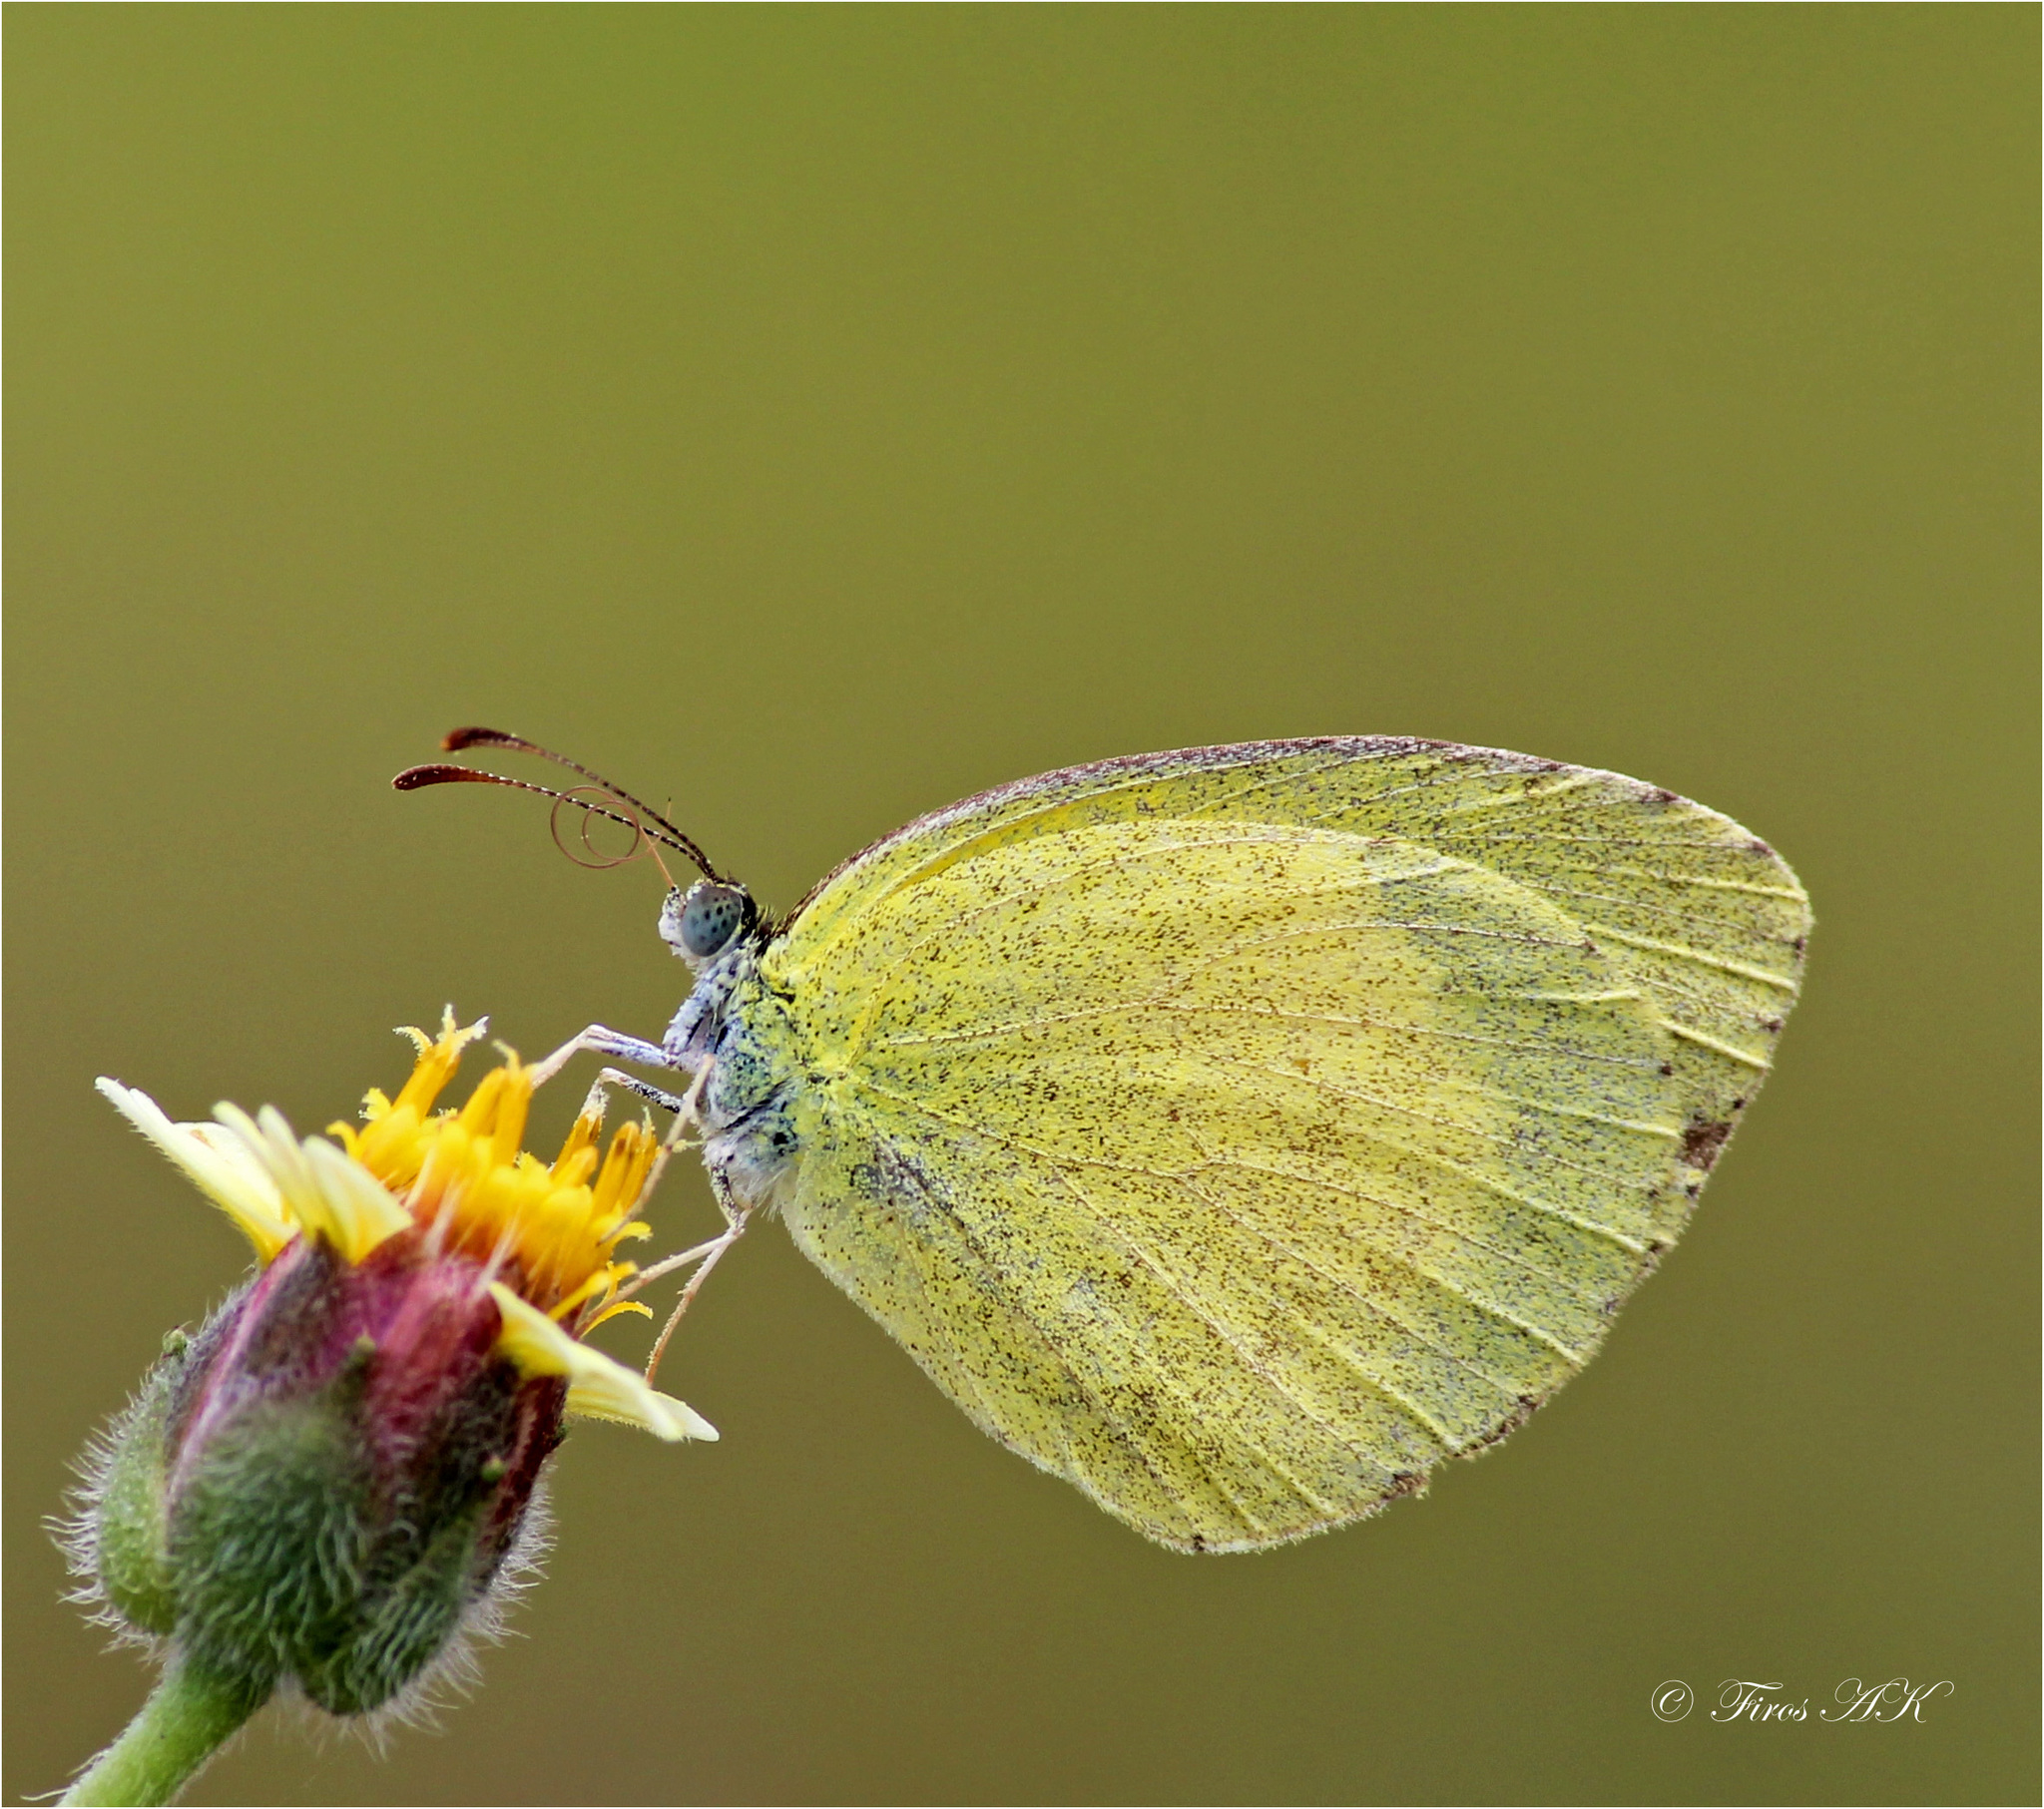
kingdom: Animalia
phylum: Arthropoda
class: Insecta
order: Lepidoptera
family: Pieridae
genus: Eurema
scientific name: Eurema brigitta
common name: Small grass yellow
